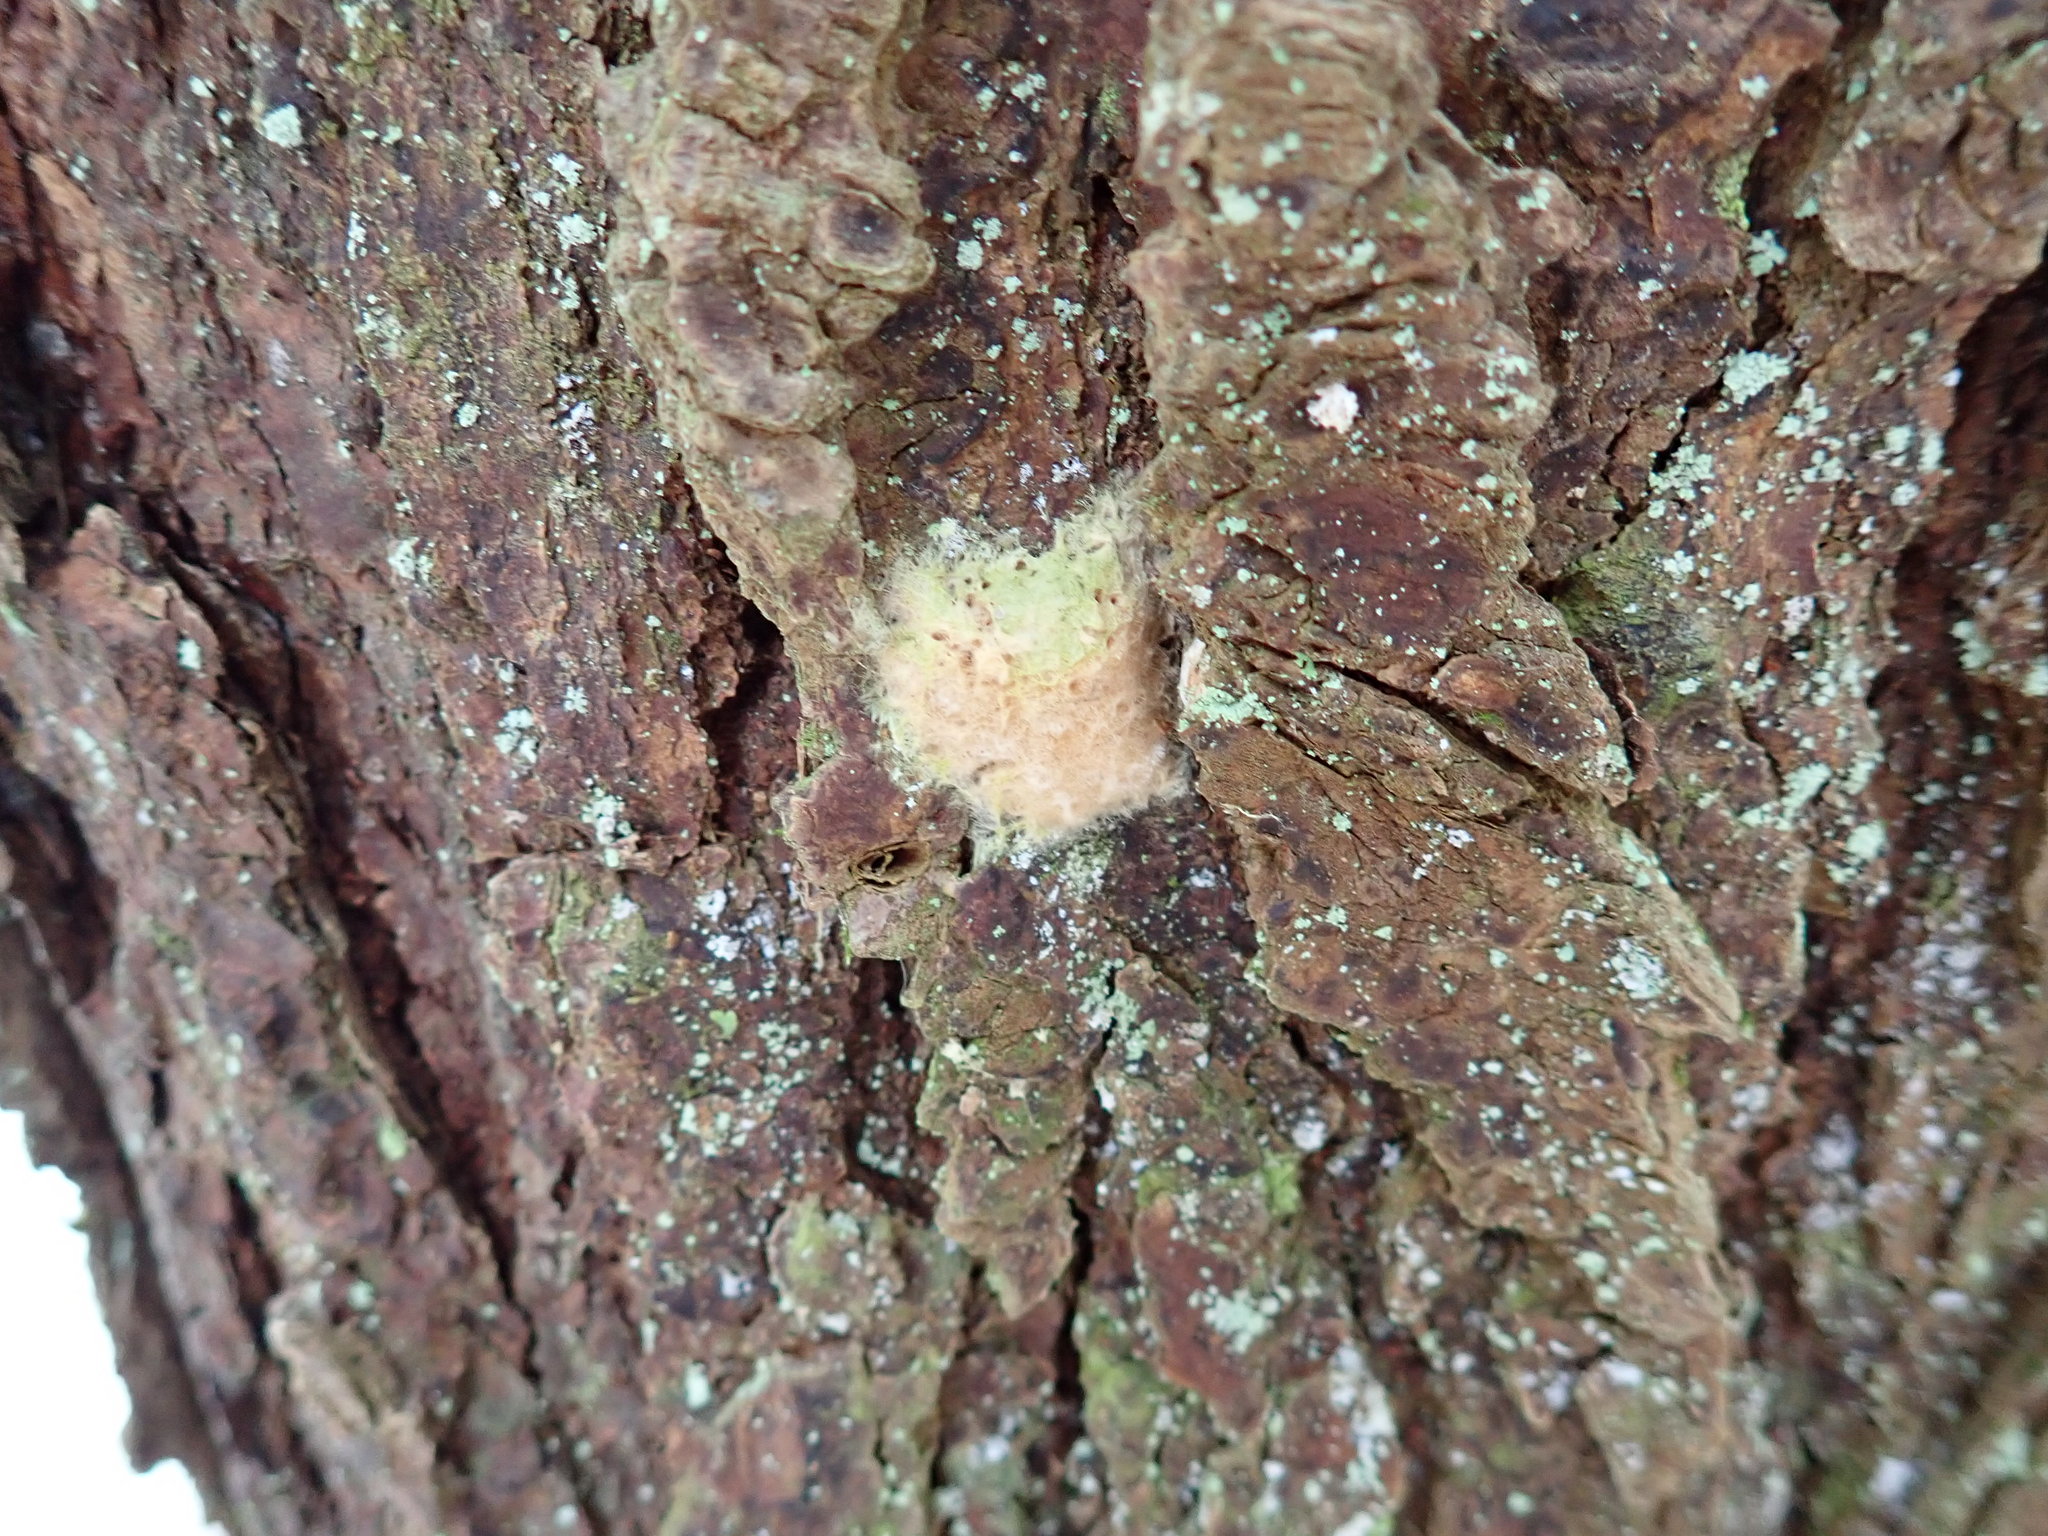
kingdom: Animalia
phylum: Arthropoda
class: Insecta
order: Lepidoptera
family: Erebidae
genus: Lymantria
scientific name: Lymantria dispar
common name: Gypsy moth
